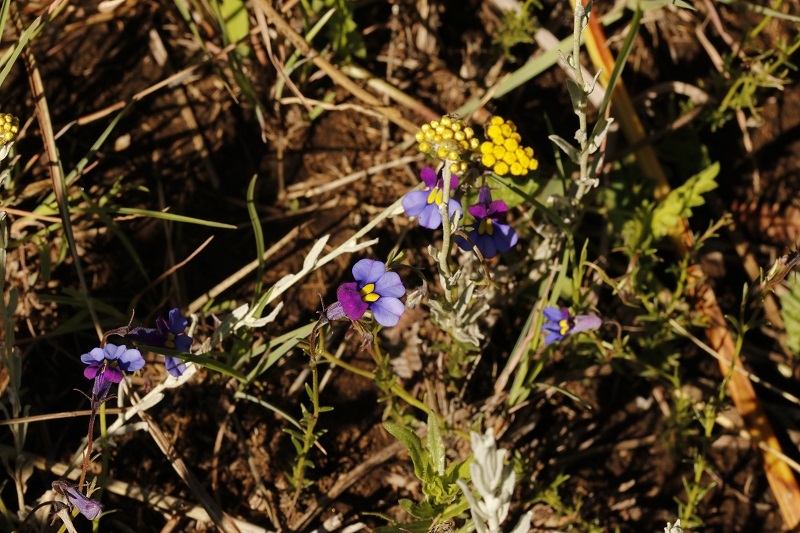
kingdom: Plantae
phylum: Tracheophyta
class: Magnoliopsida
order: Asterales
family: Campanulaceae
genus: Monopsis
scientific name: Monopsis decipiens
